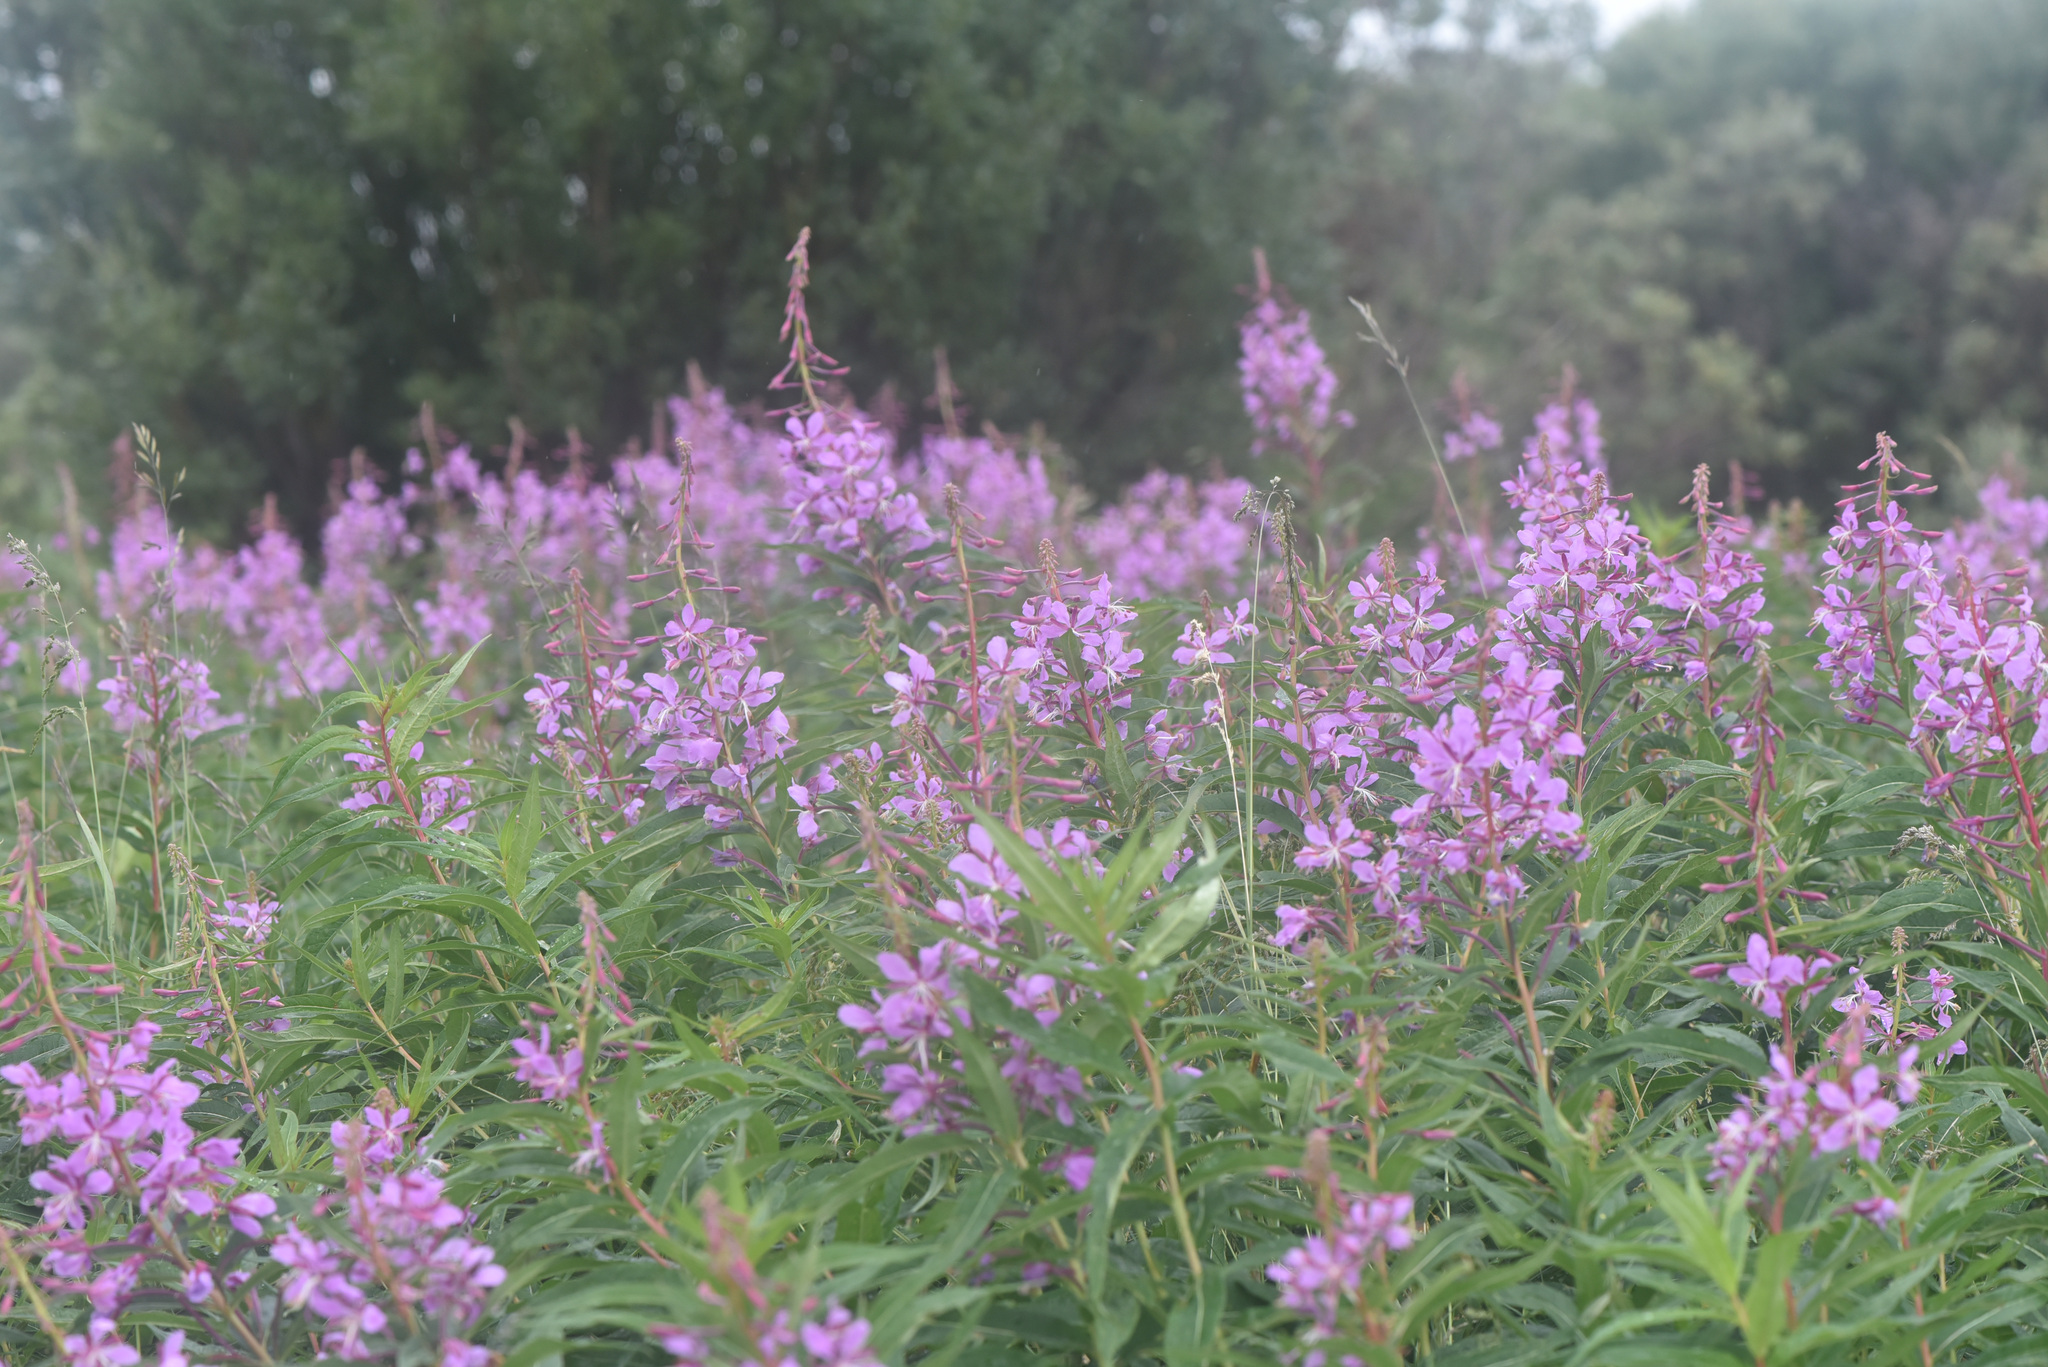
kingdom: Plantae
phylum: Tracheophyta
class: Magnoliopsida
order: Myrtales
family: Onagraceae
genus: Chamaenerion
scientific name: Chamaenerion angustifolium
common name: Fireweed
